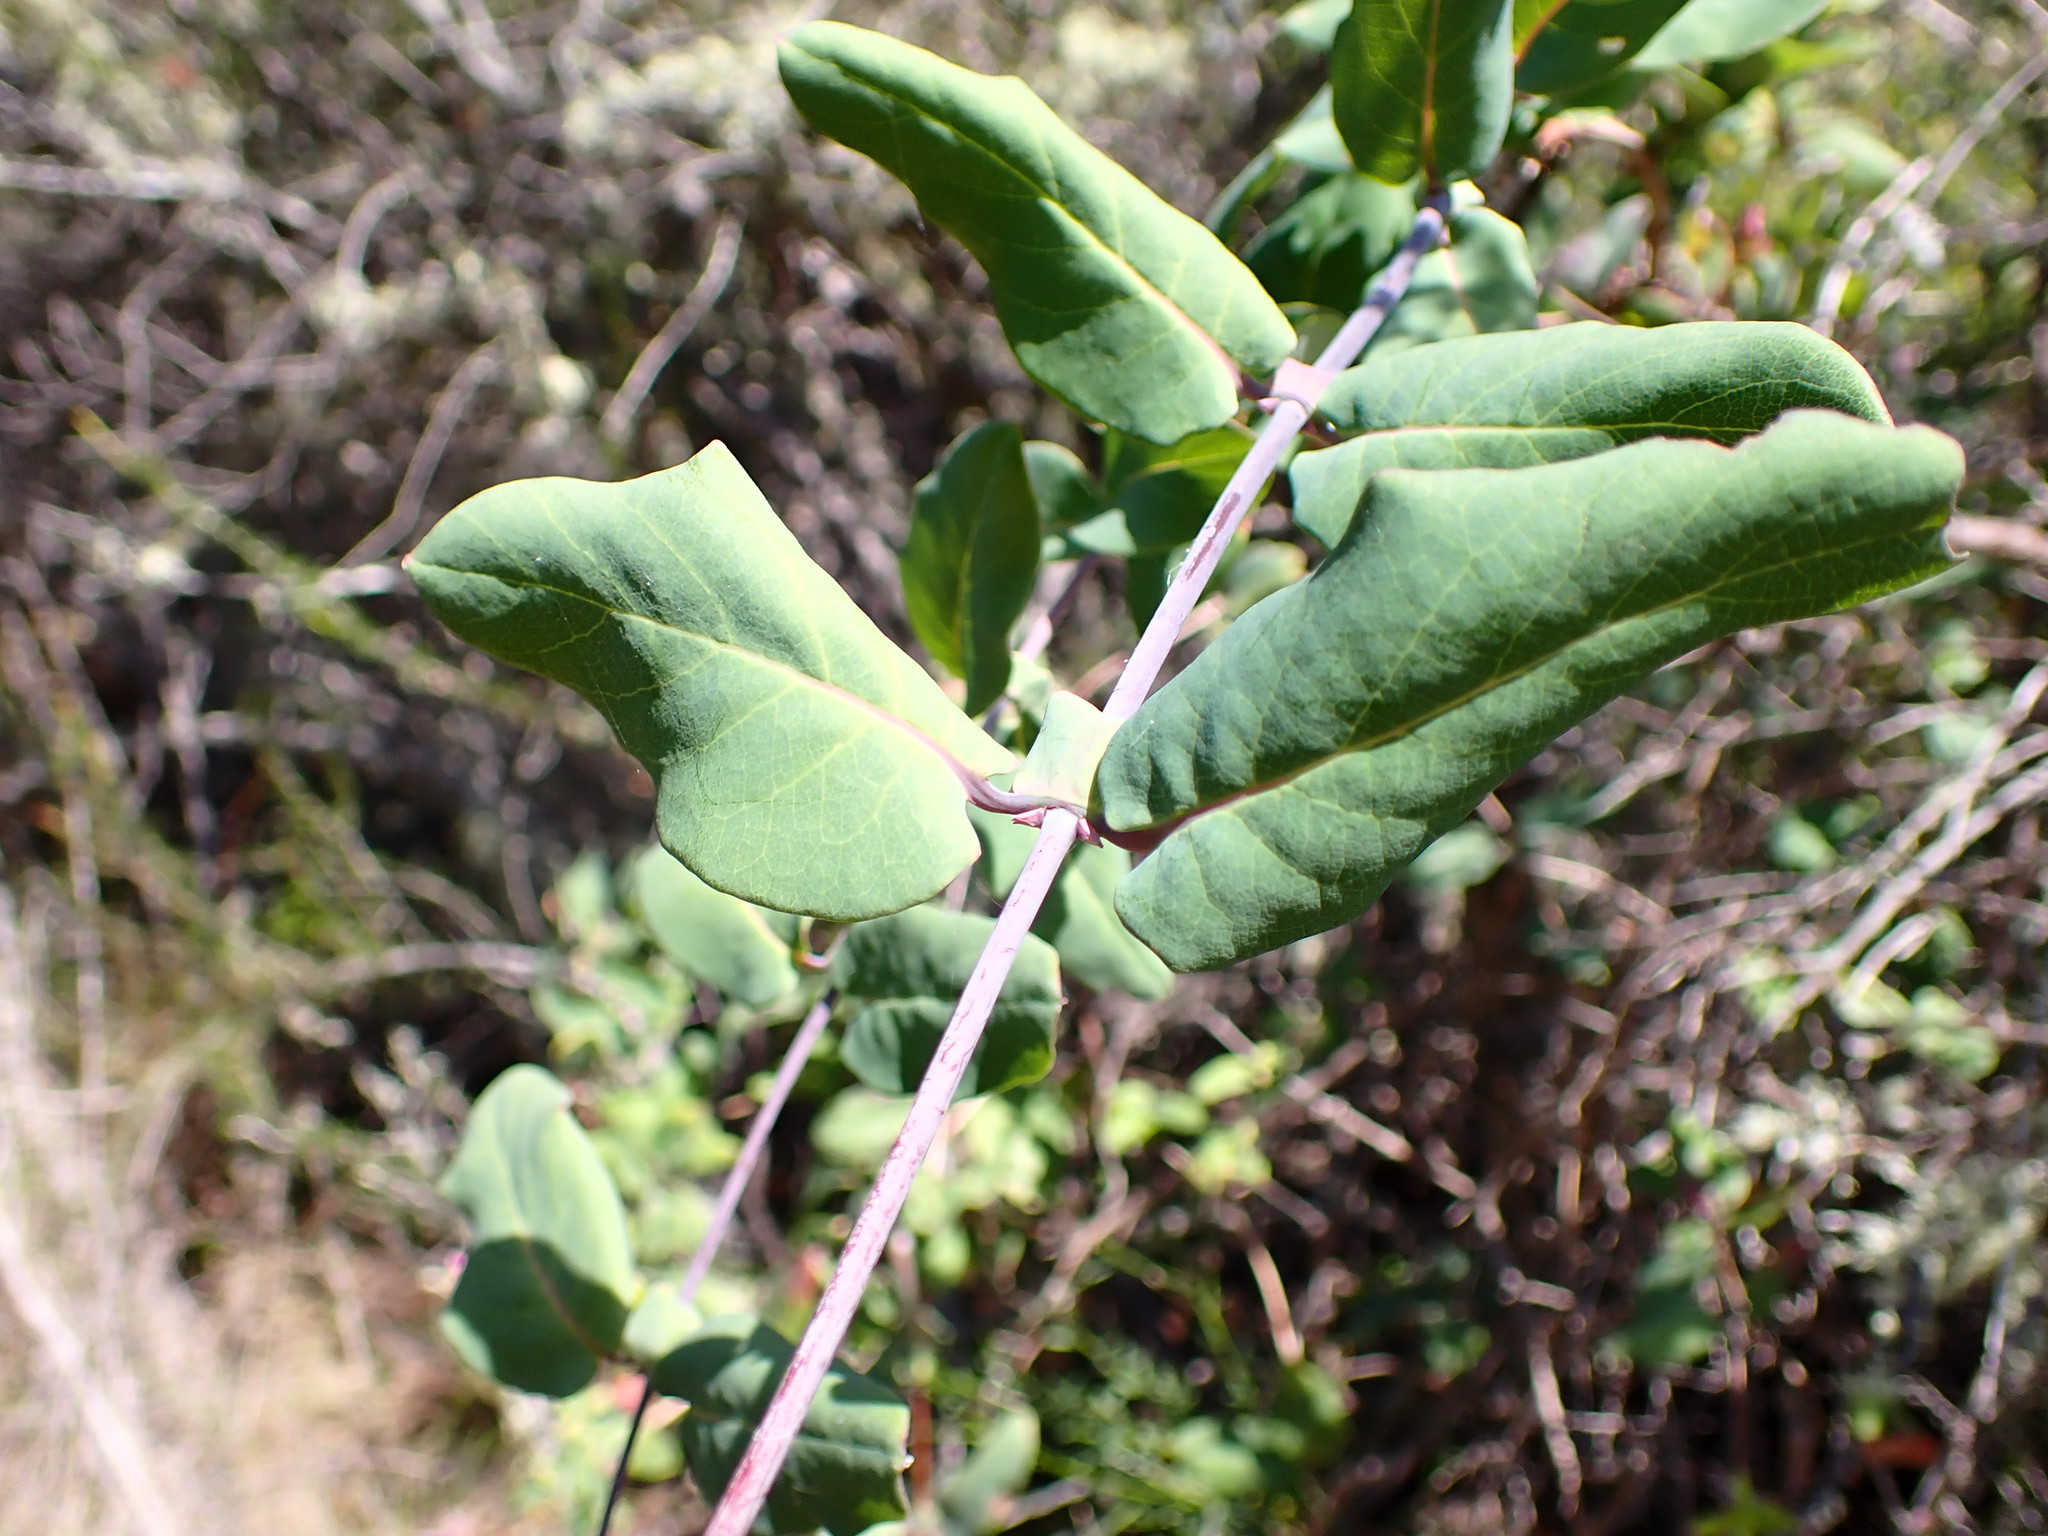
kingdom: Plantae
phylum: Tracheophyta
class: Magnoliopsida
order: Dipsacales
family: Caprifoliaceae
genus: Lonicera
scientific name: Lonicera hispidula
